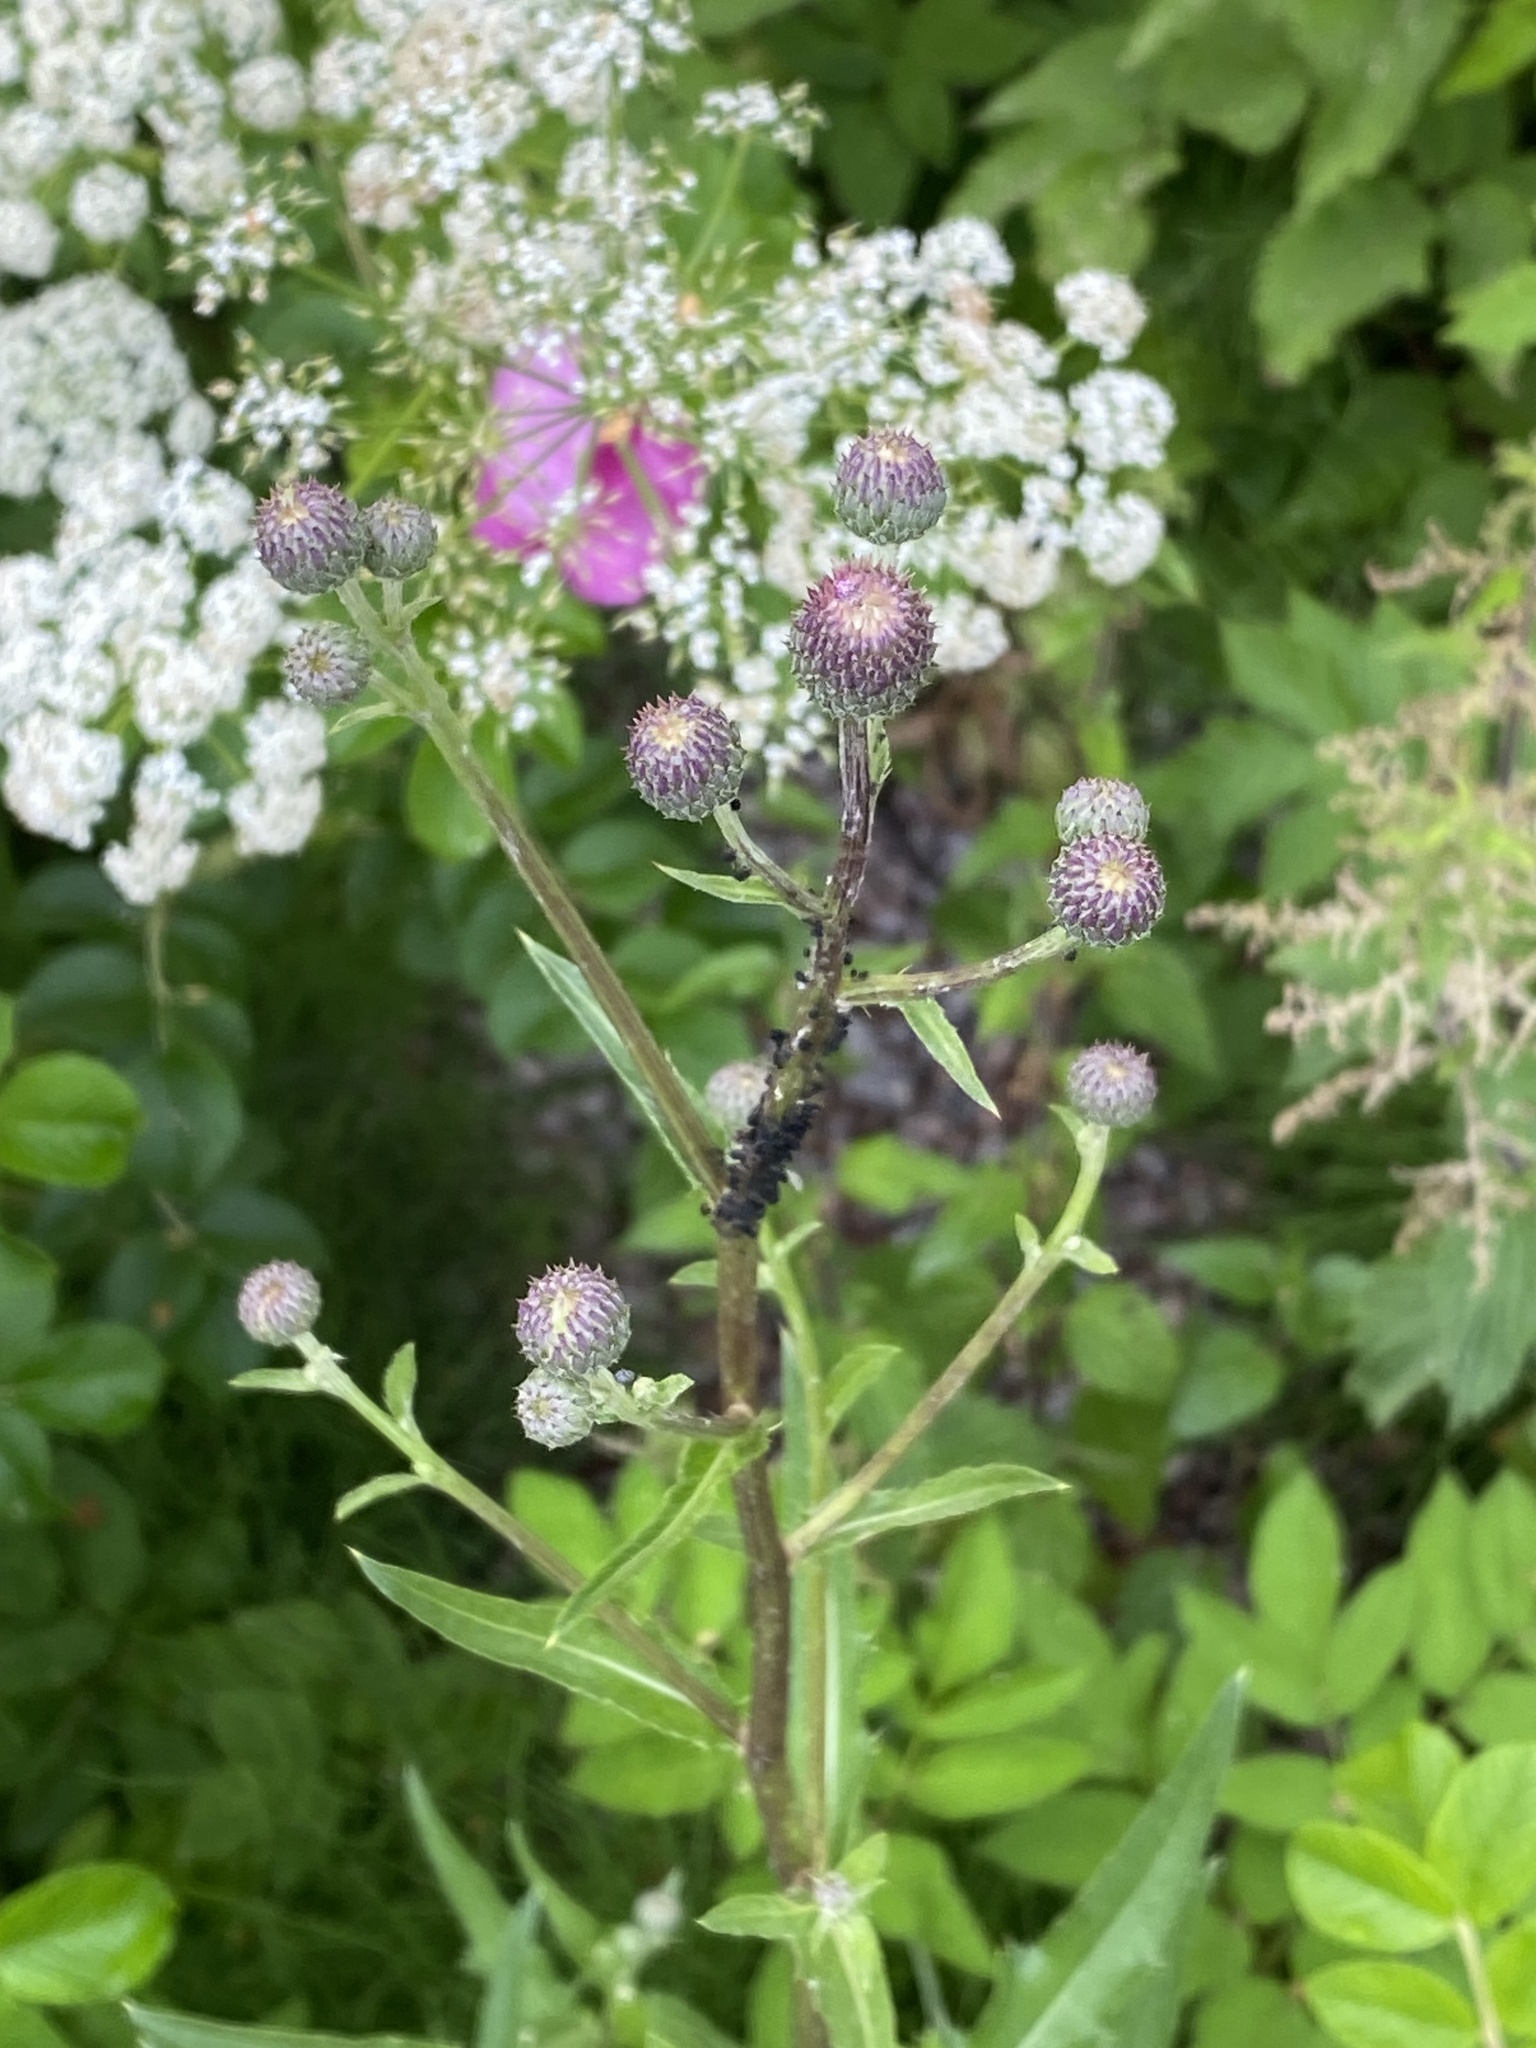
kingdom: Plantae
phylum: Tracheophyta
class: Magnoliopsida
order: Asterales
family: Asteraceae
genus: Cirsium
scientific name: Cirsium arvense
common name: Creeping thistle
